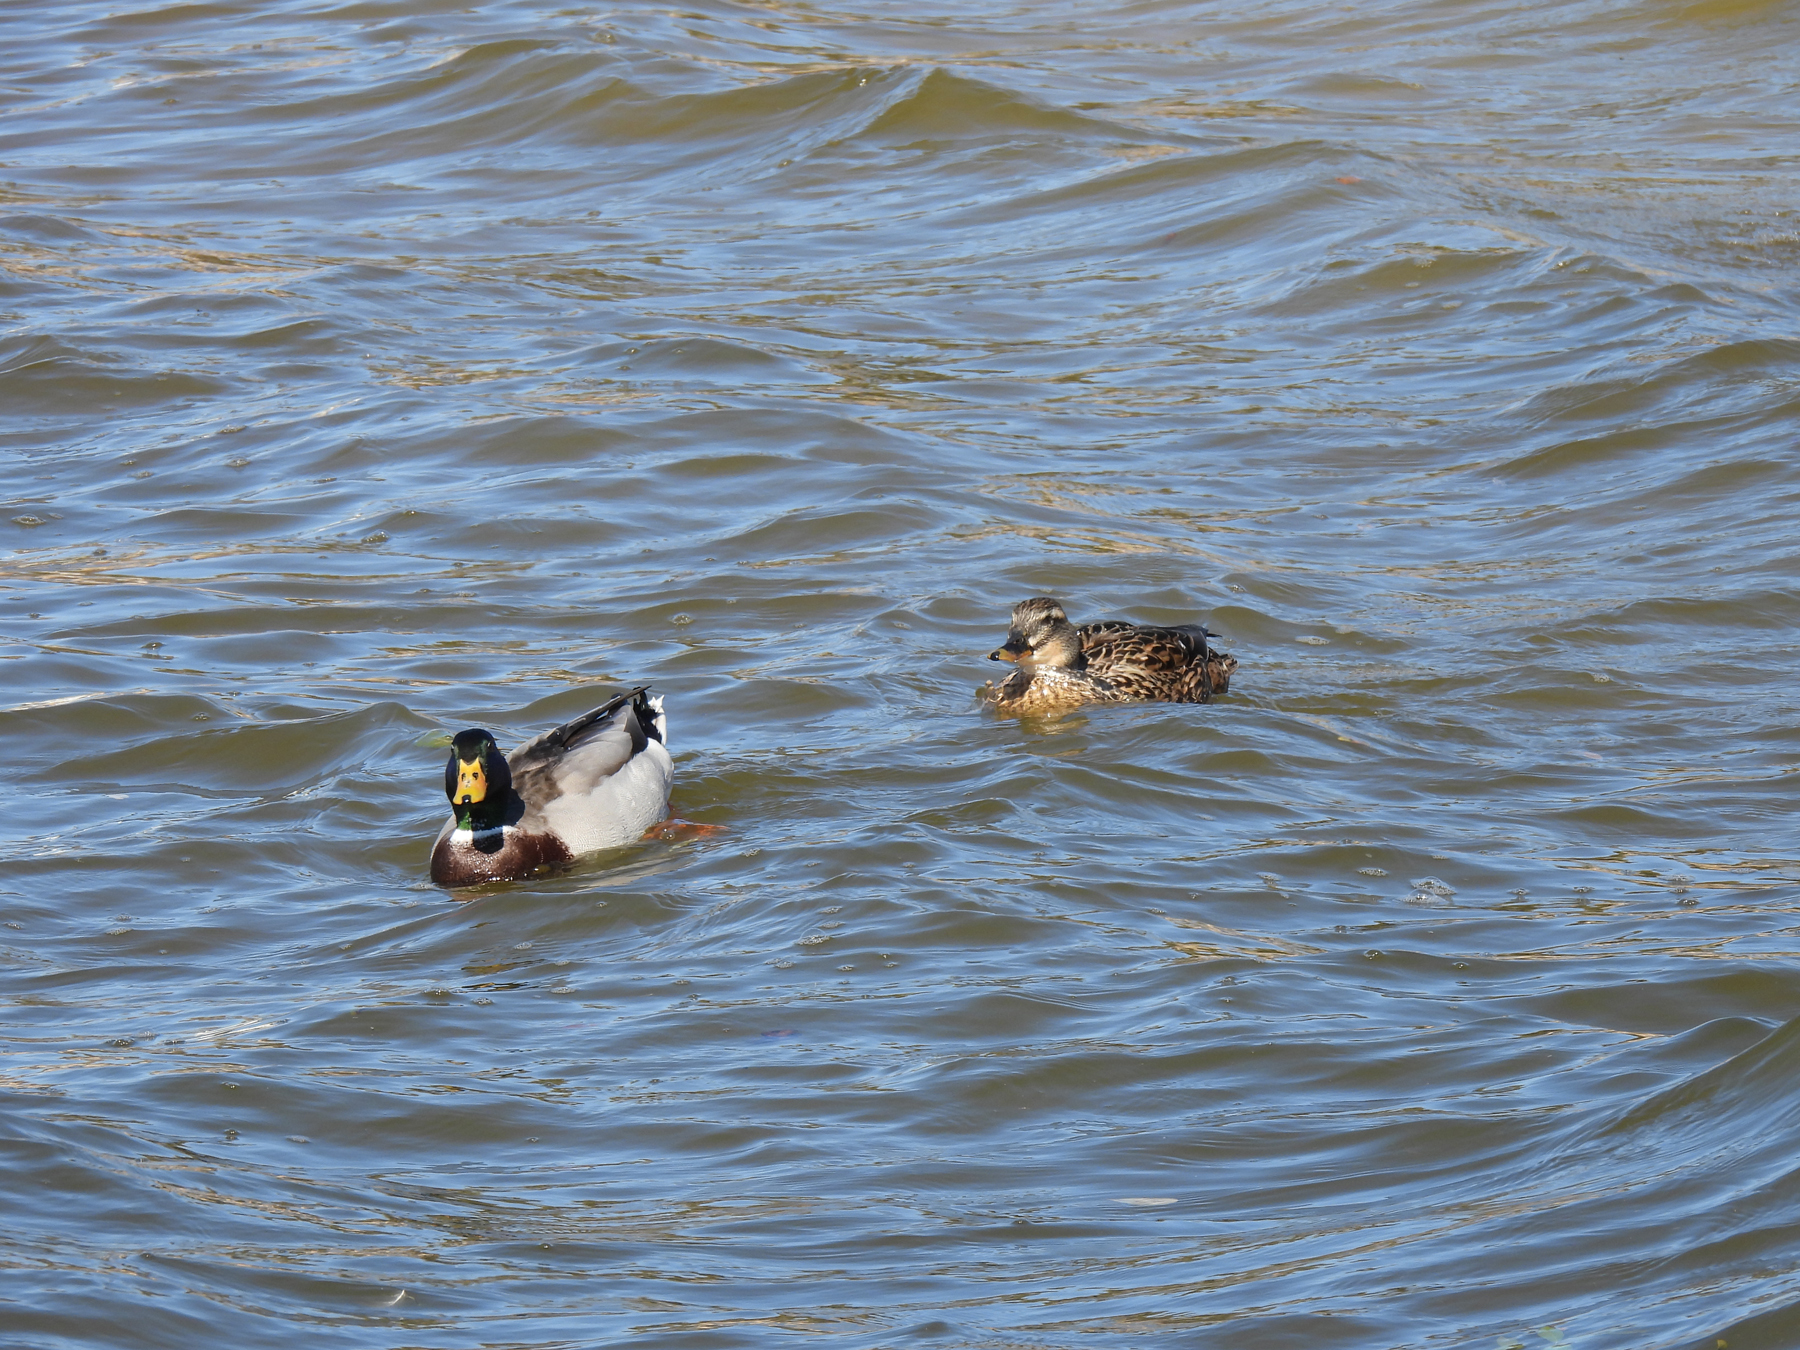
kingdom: Animalia
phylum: Chordata
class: Aves
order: Anseriformes
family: Anatidae
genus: Anas
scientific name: Anas platyrhynchos
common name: Mallard
